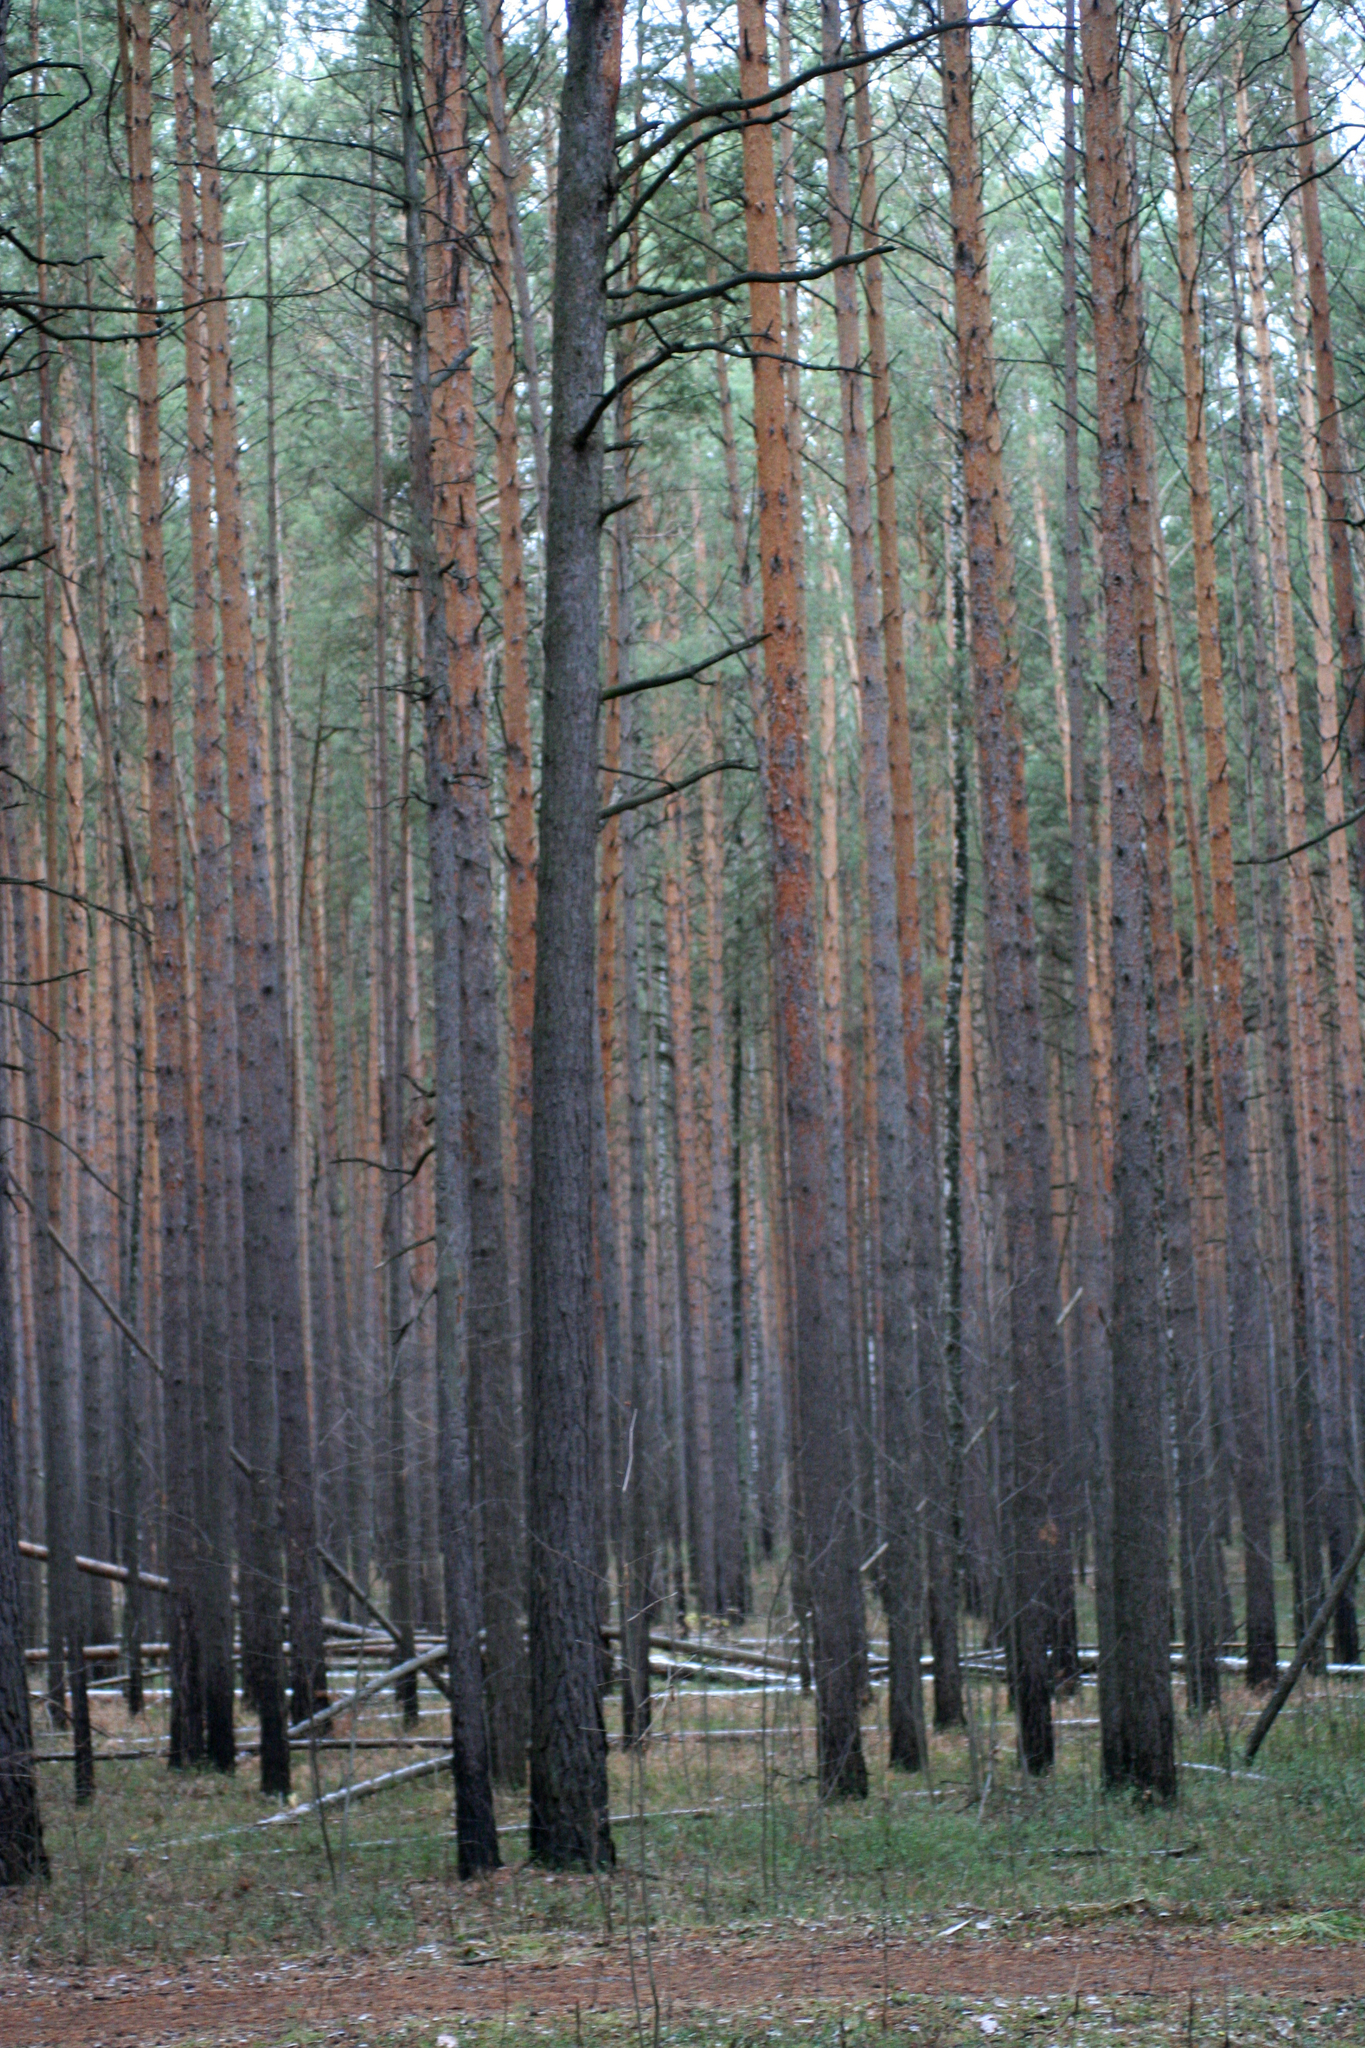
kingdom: Plantae
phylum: Tracheophyta
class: Pinopsida
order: Pinales
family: Pinaceae
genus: Pinus
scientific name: Pinus sylvestris
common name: Scots pine
